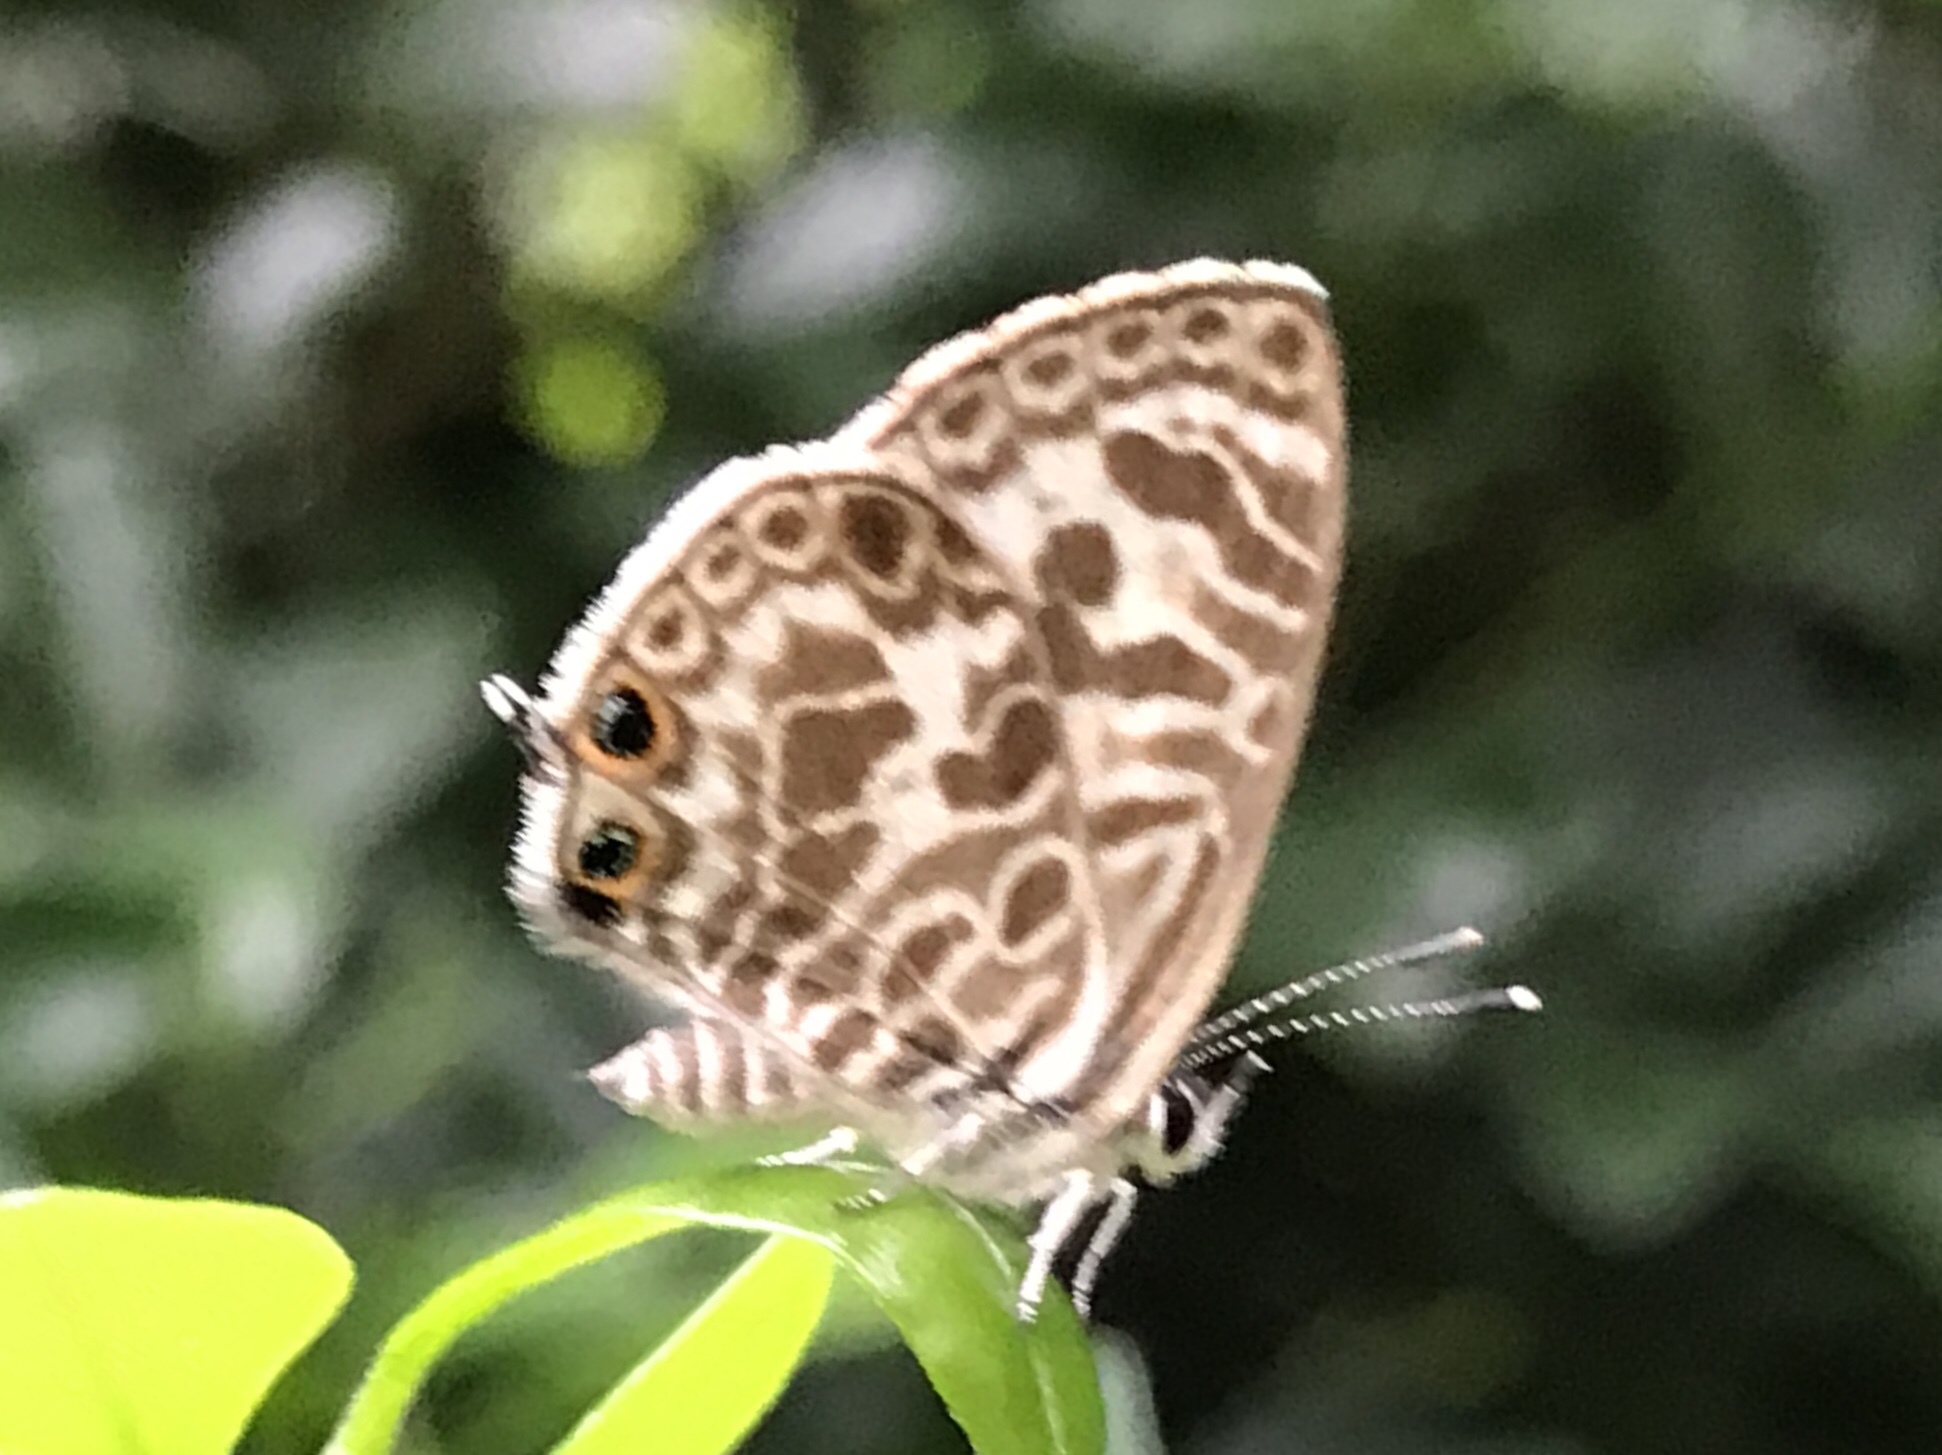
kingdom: Animalia
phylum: Arthropoda
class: Insecta
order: Lepidoptera
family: Lycaenidae
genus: Leptotes
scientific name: Leptotes plinius
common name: Zebra blue
